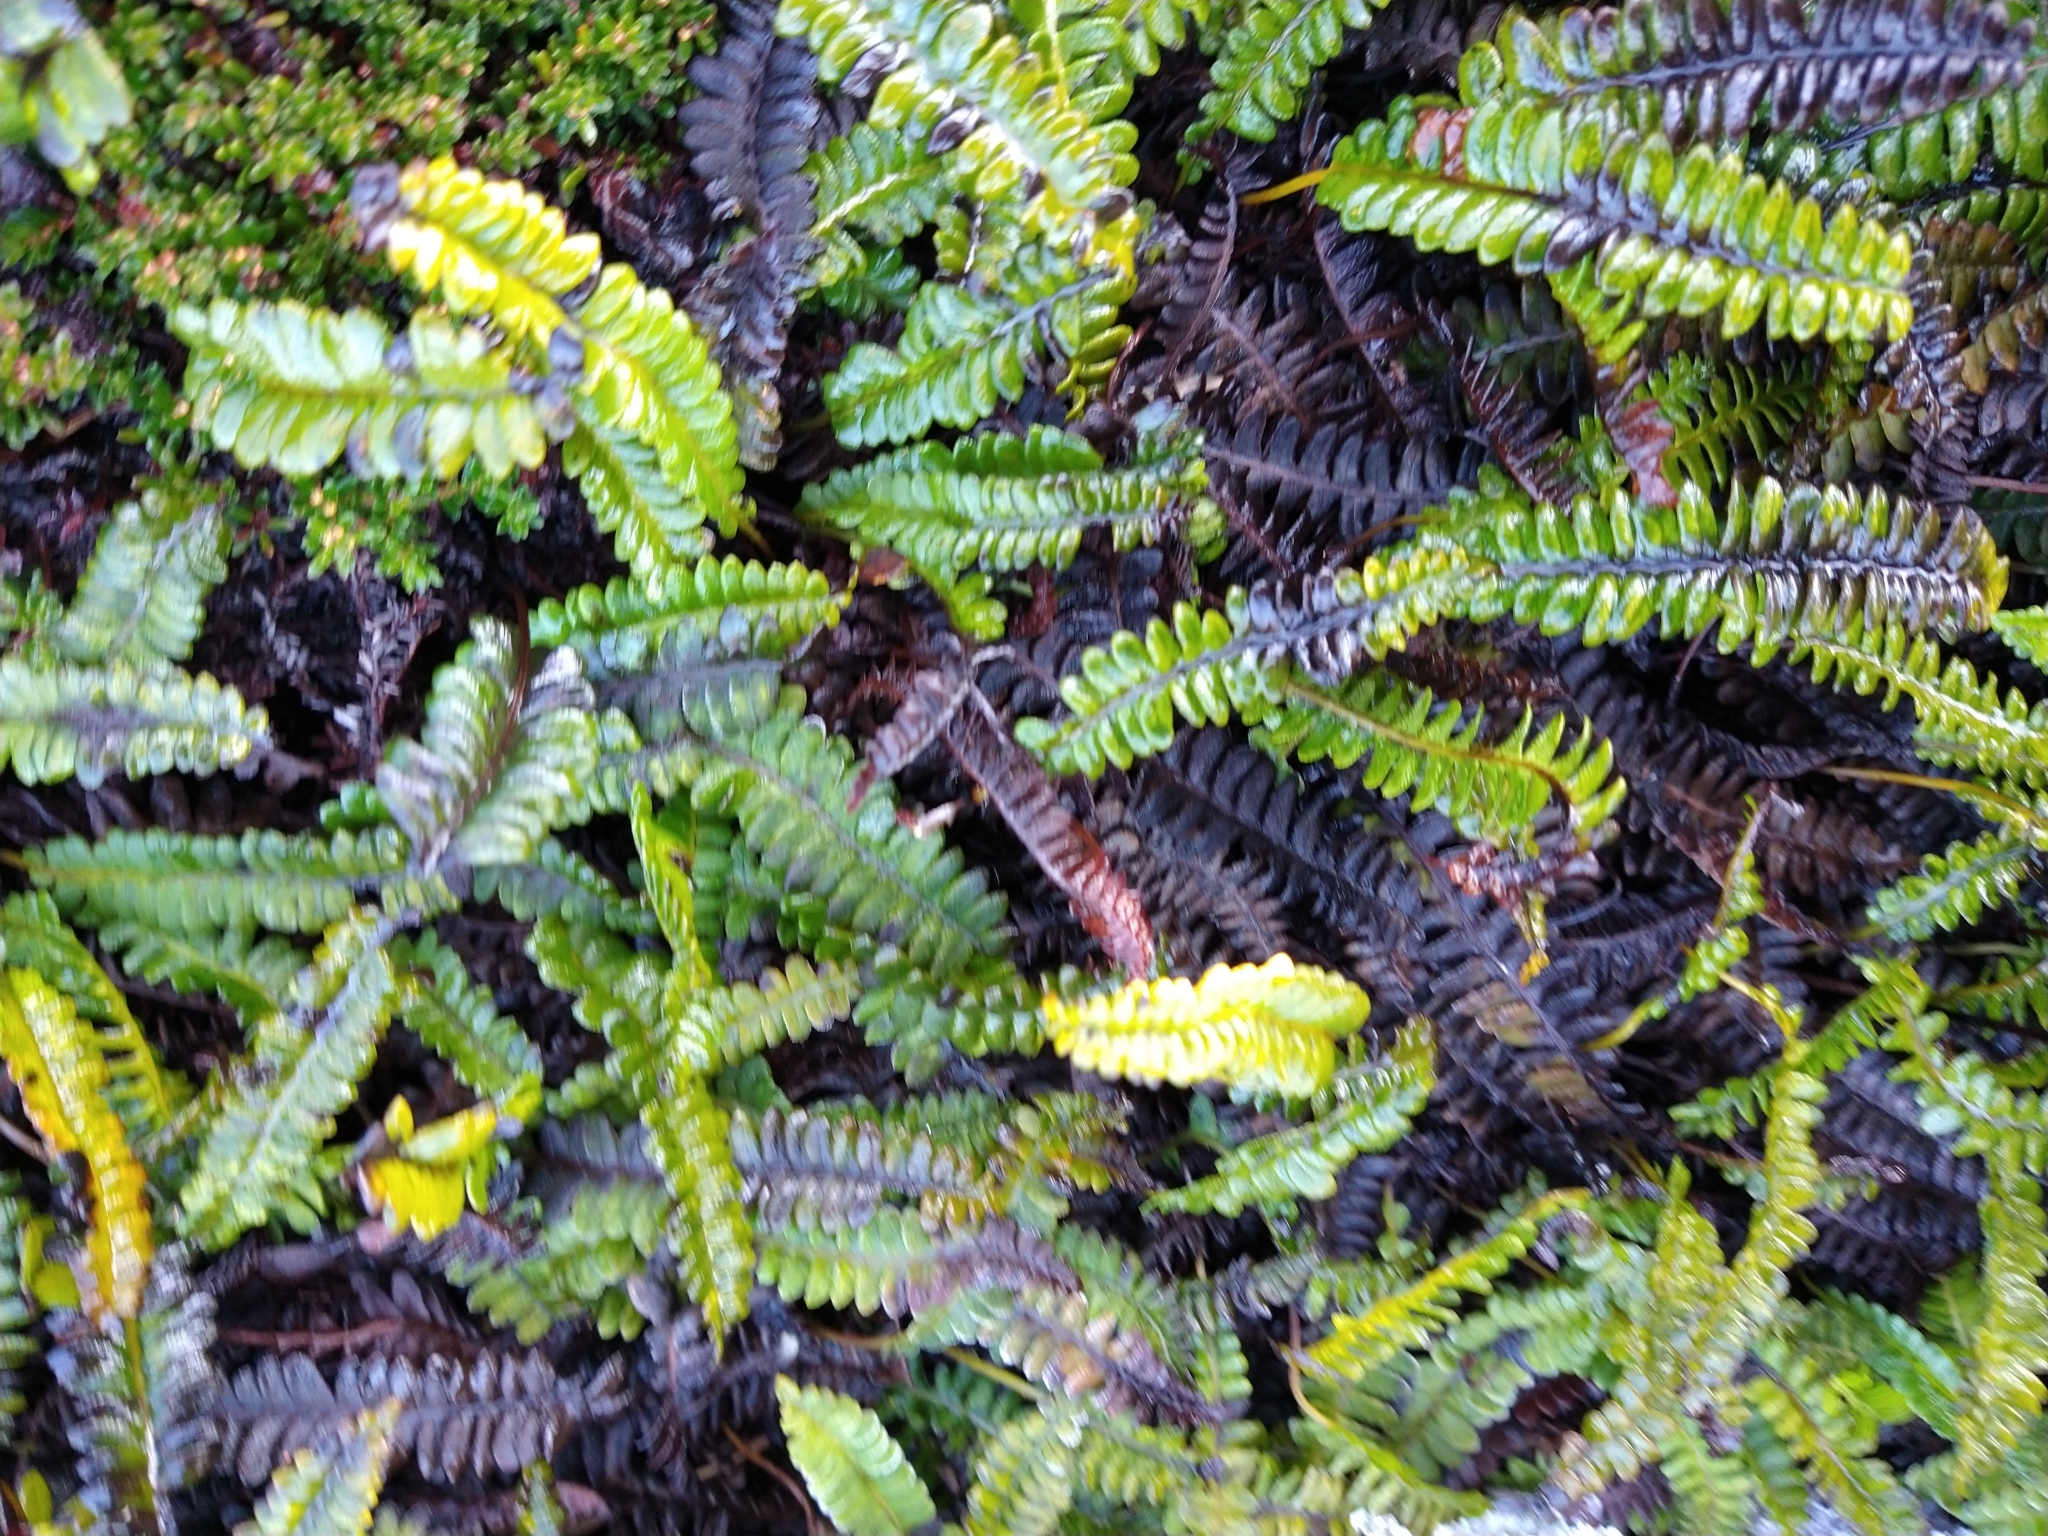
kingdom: Plantae
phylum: Tracheophyta
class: Polypodiopsida
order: Polypodiales
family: Blechnaceae
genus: Austroblechnum
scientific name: Austroblechnum penna-marina
